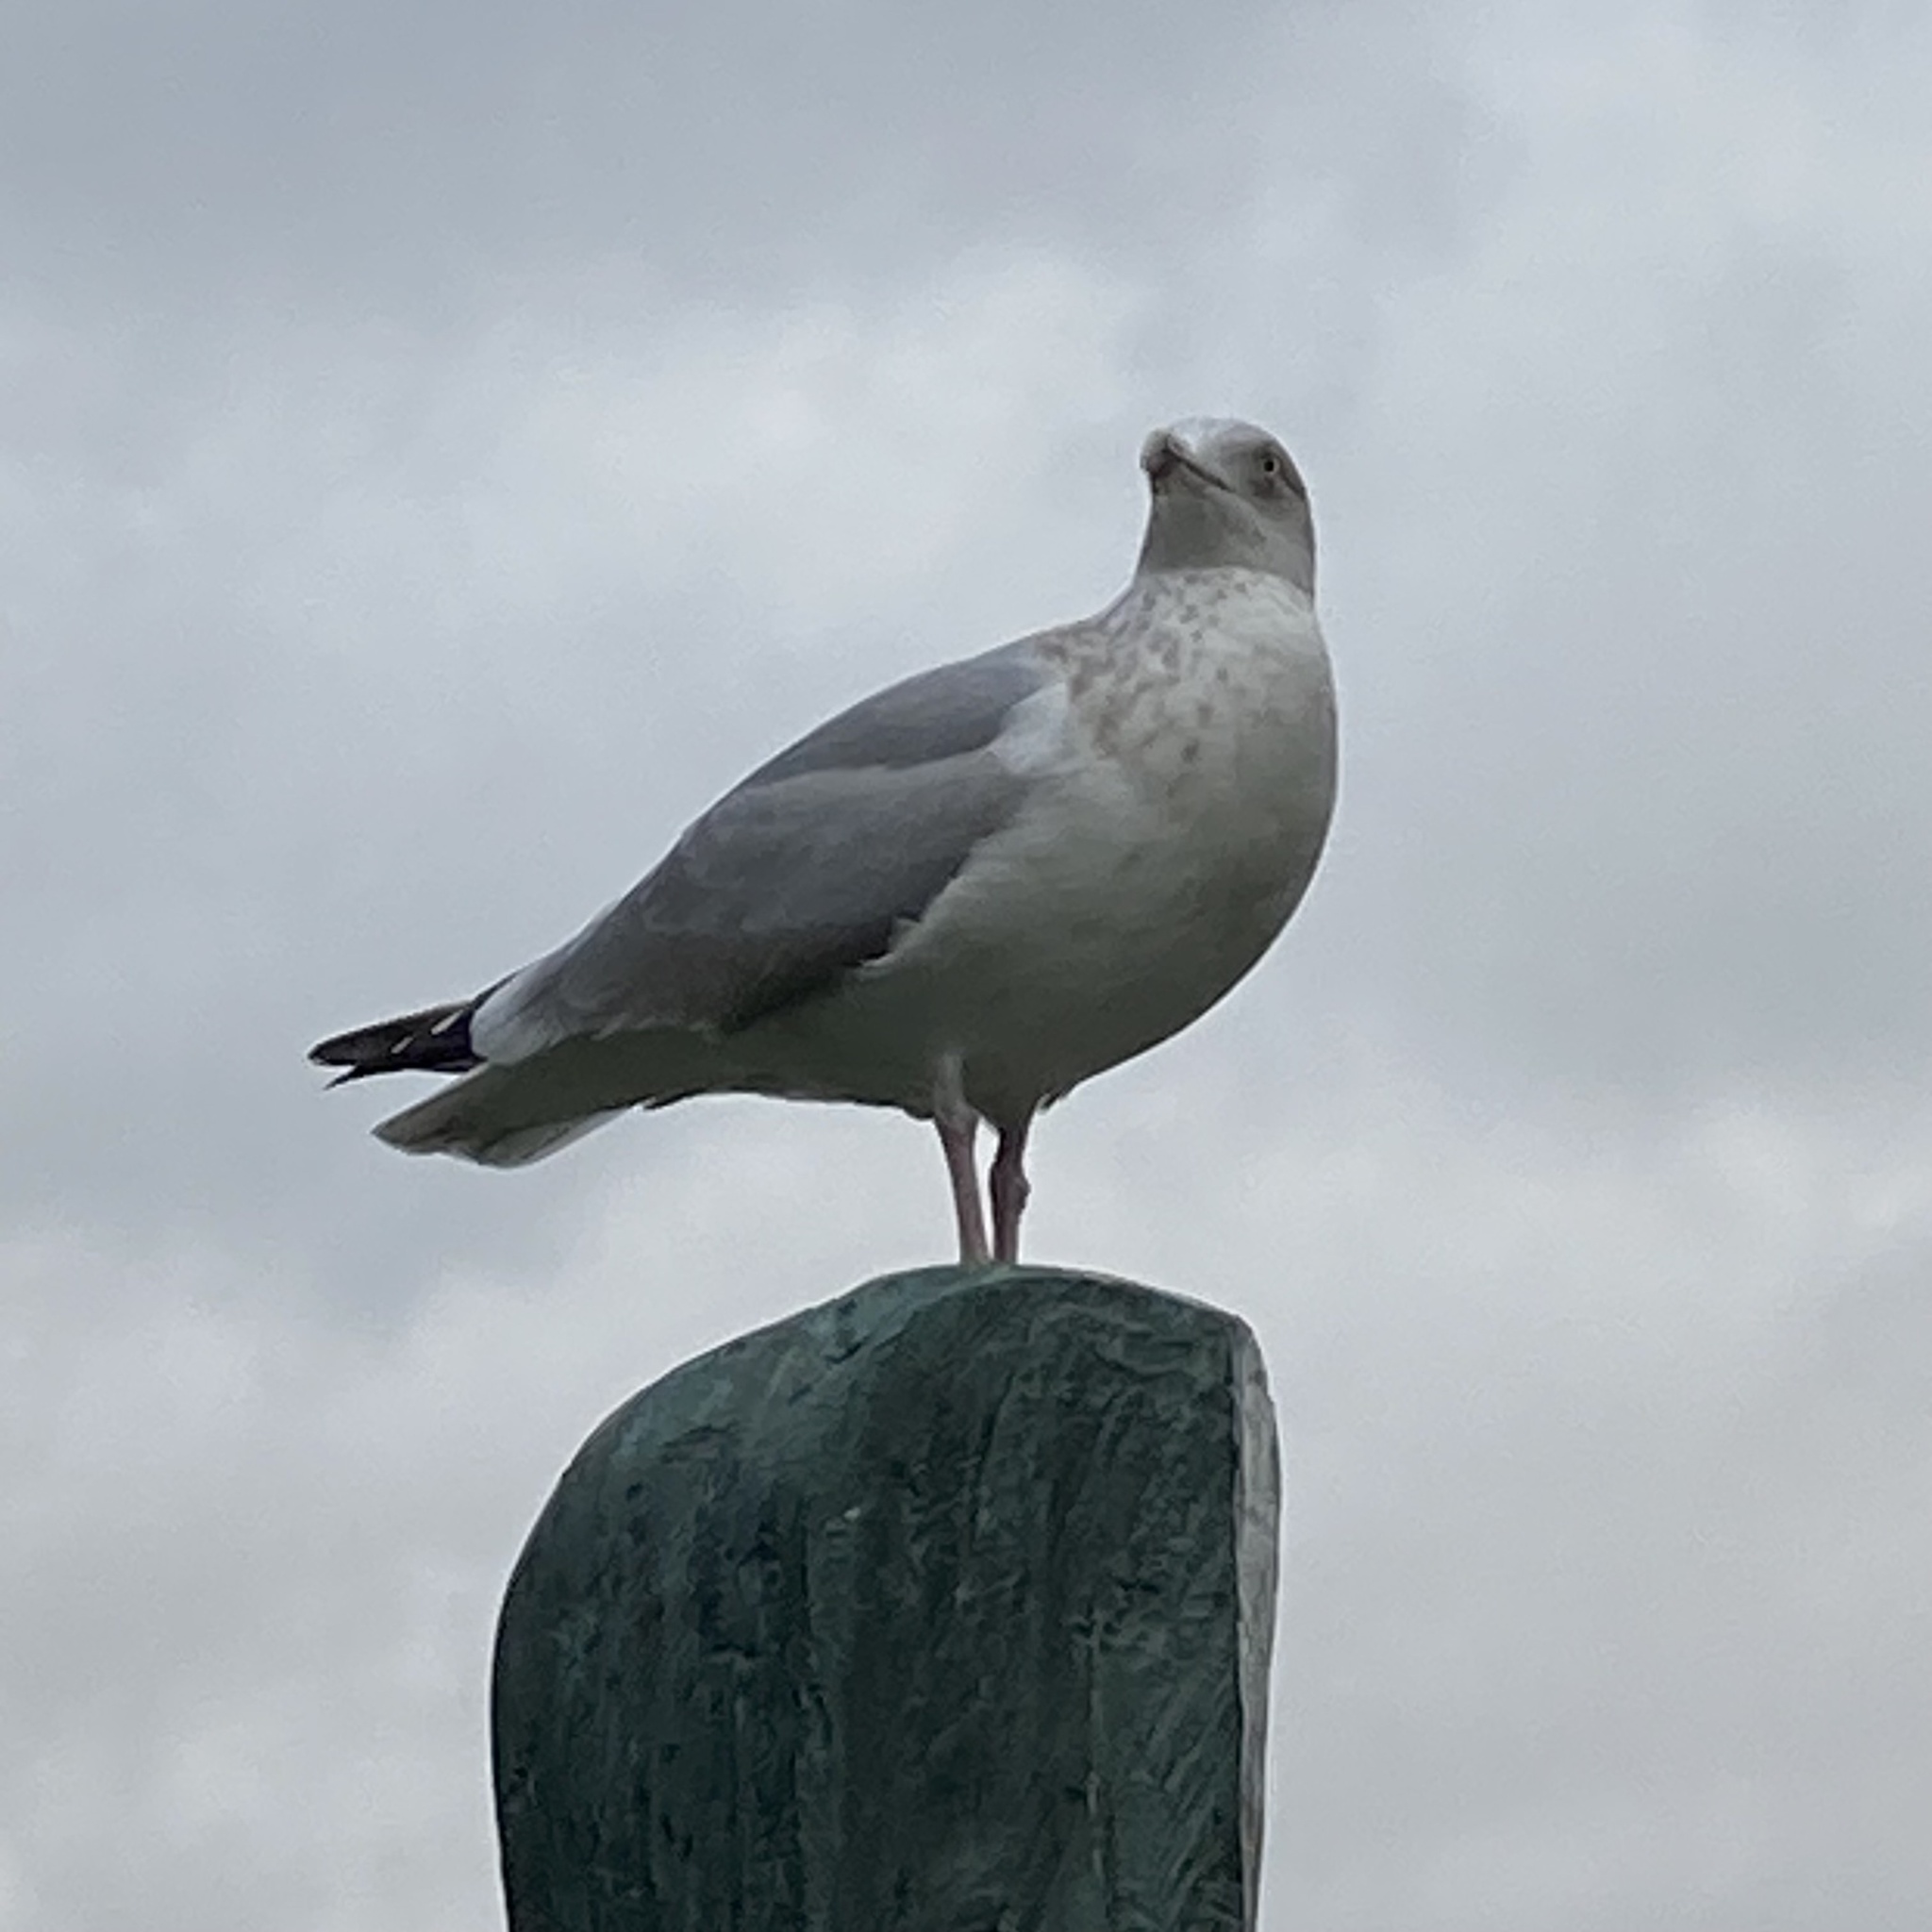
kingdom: Animalia
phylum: Chordata
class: Aves
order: Charadriiformes
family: Laridae
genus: Larus
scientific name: Larus argentatus
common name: Herring gull
